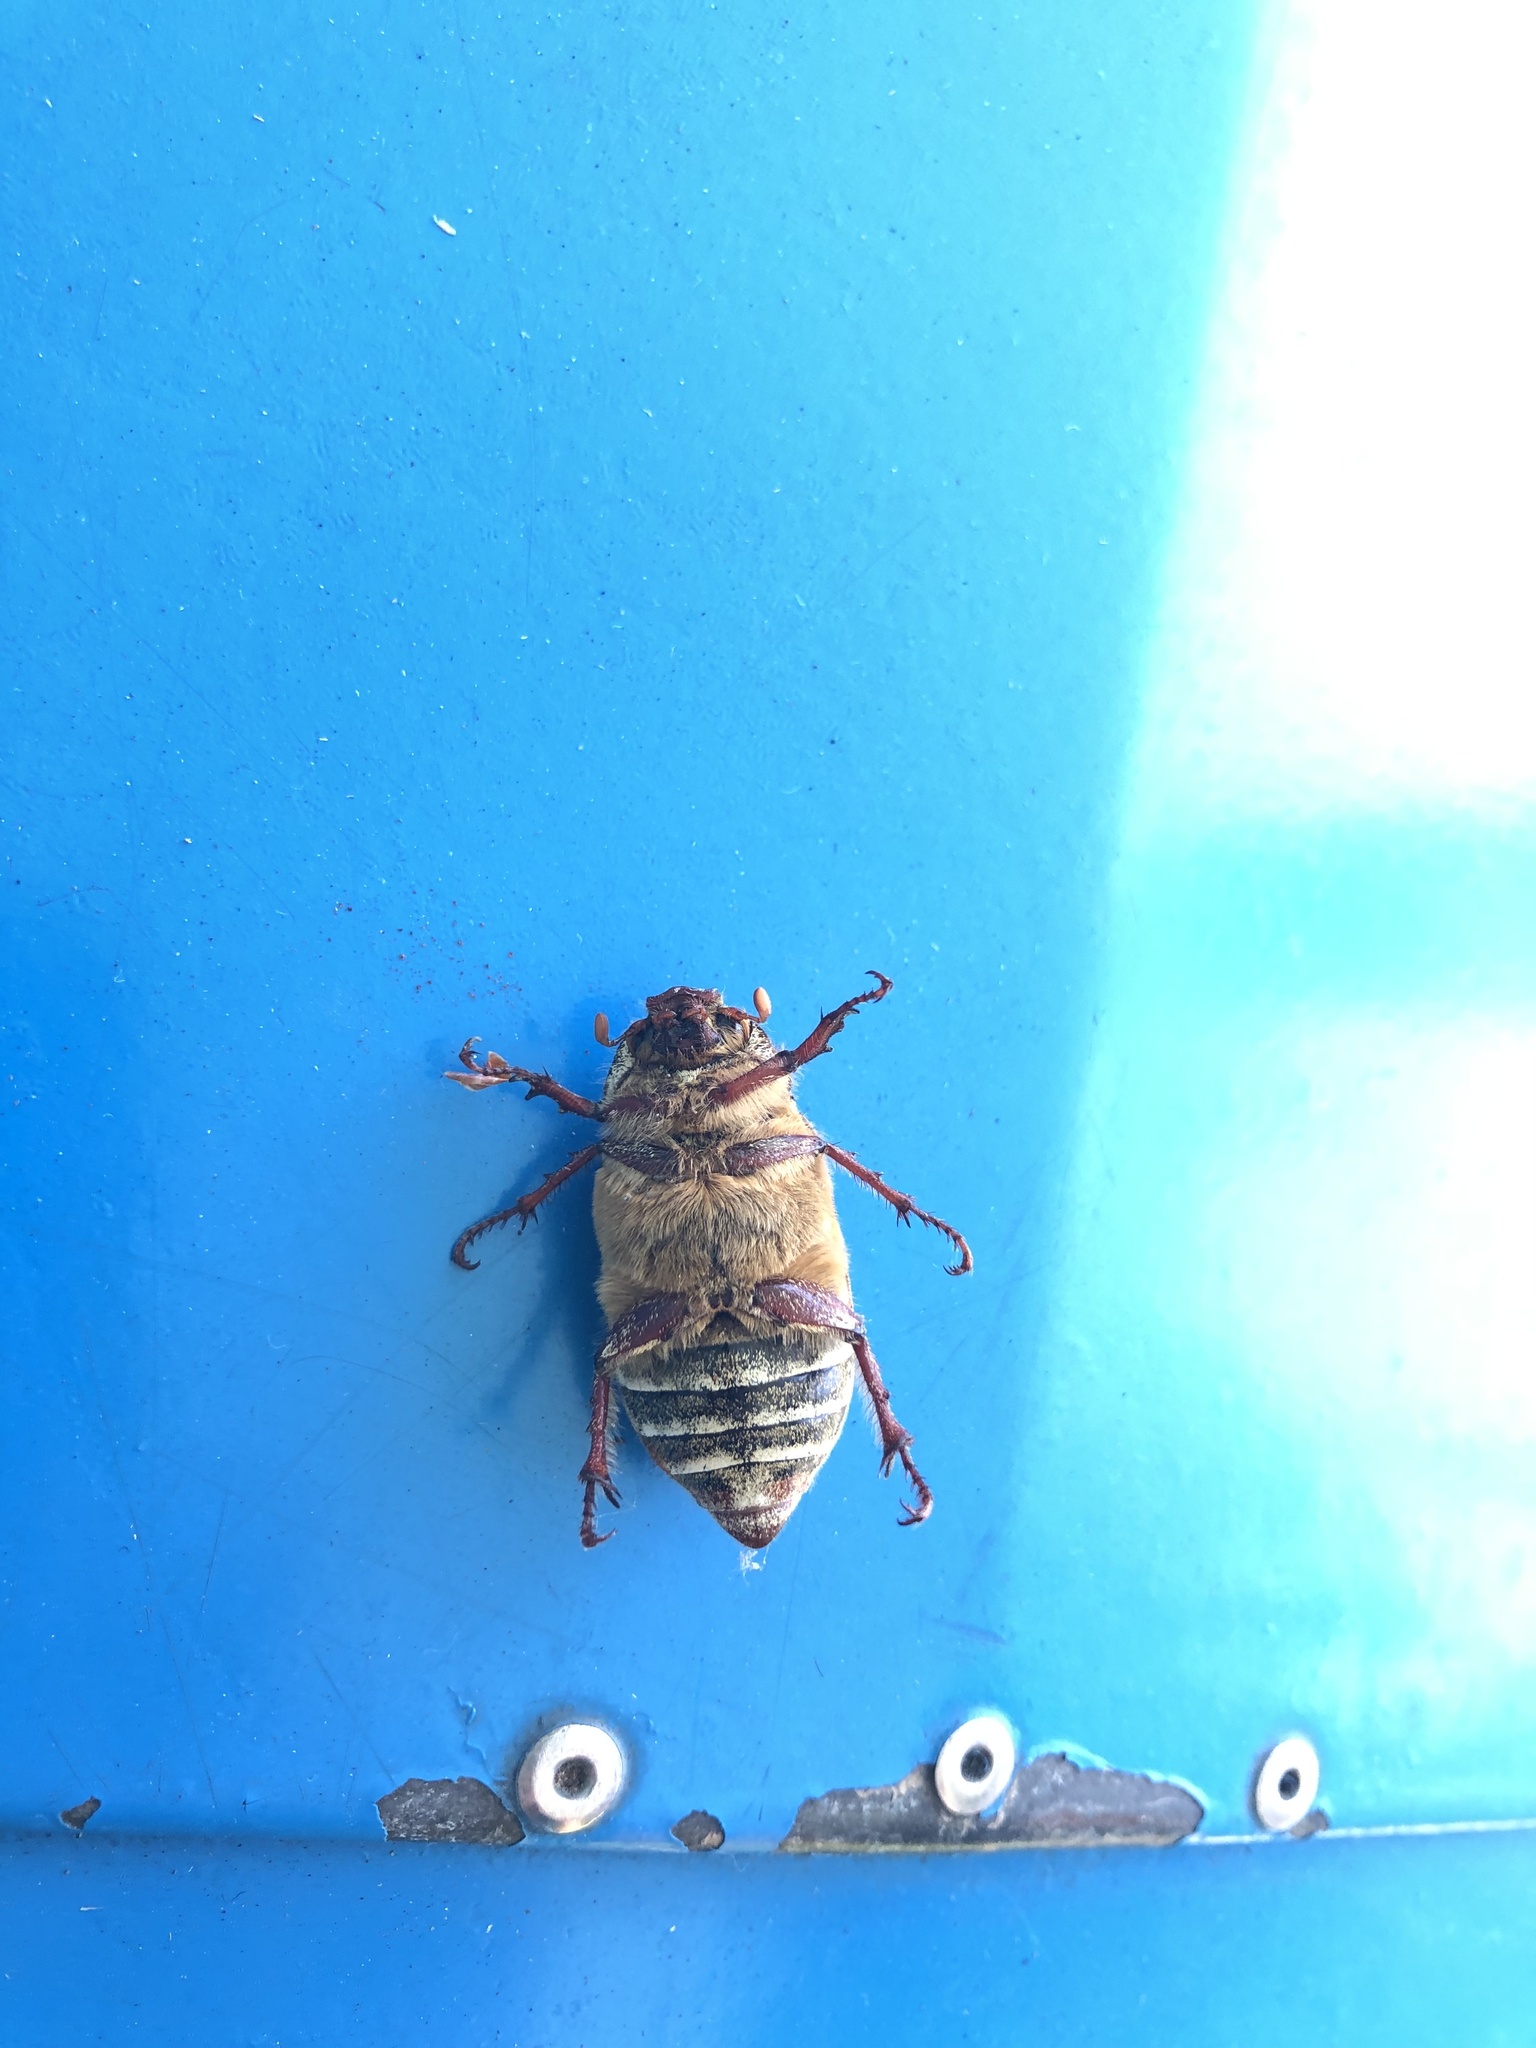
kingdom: Animalia
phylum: Arthropoda
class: Insecta
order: Coleoptera
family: Scarabaeidae
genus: Polyphylla
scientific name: Polyphylla crinita
